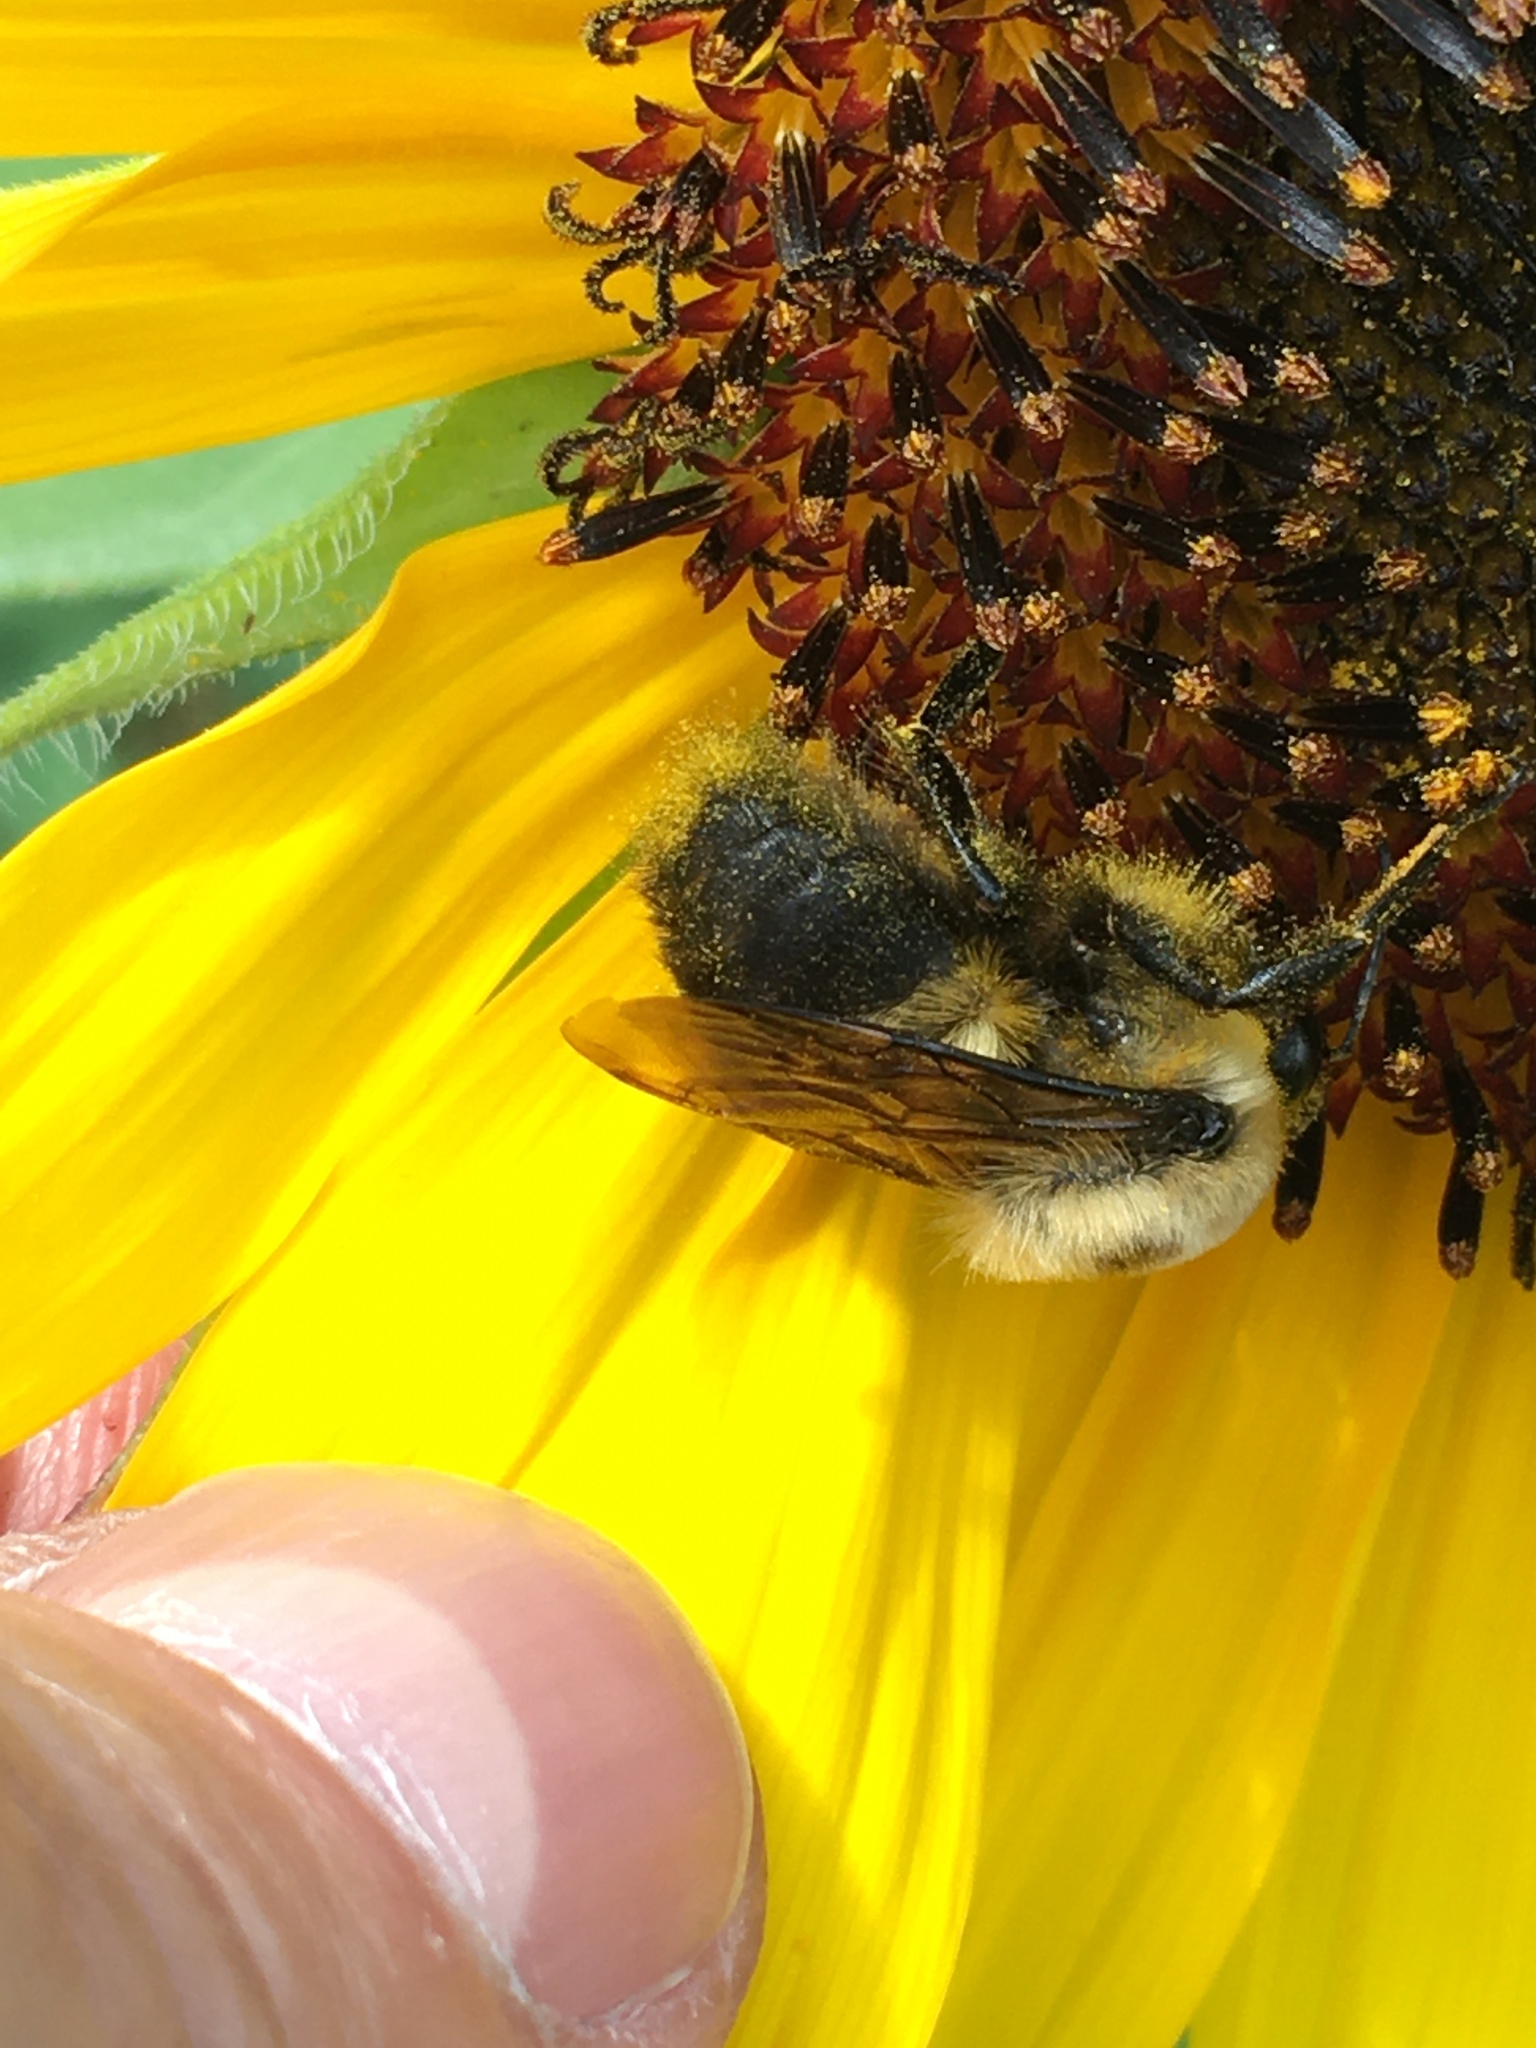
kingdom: Plantae
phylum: Tracheophyta
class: Magnoliopsida
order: Asterales
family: Asteraceae
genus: Helianthus
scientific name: Helianthus annuus
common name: Sunflower
